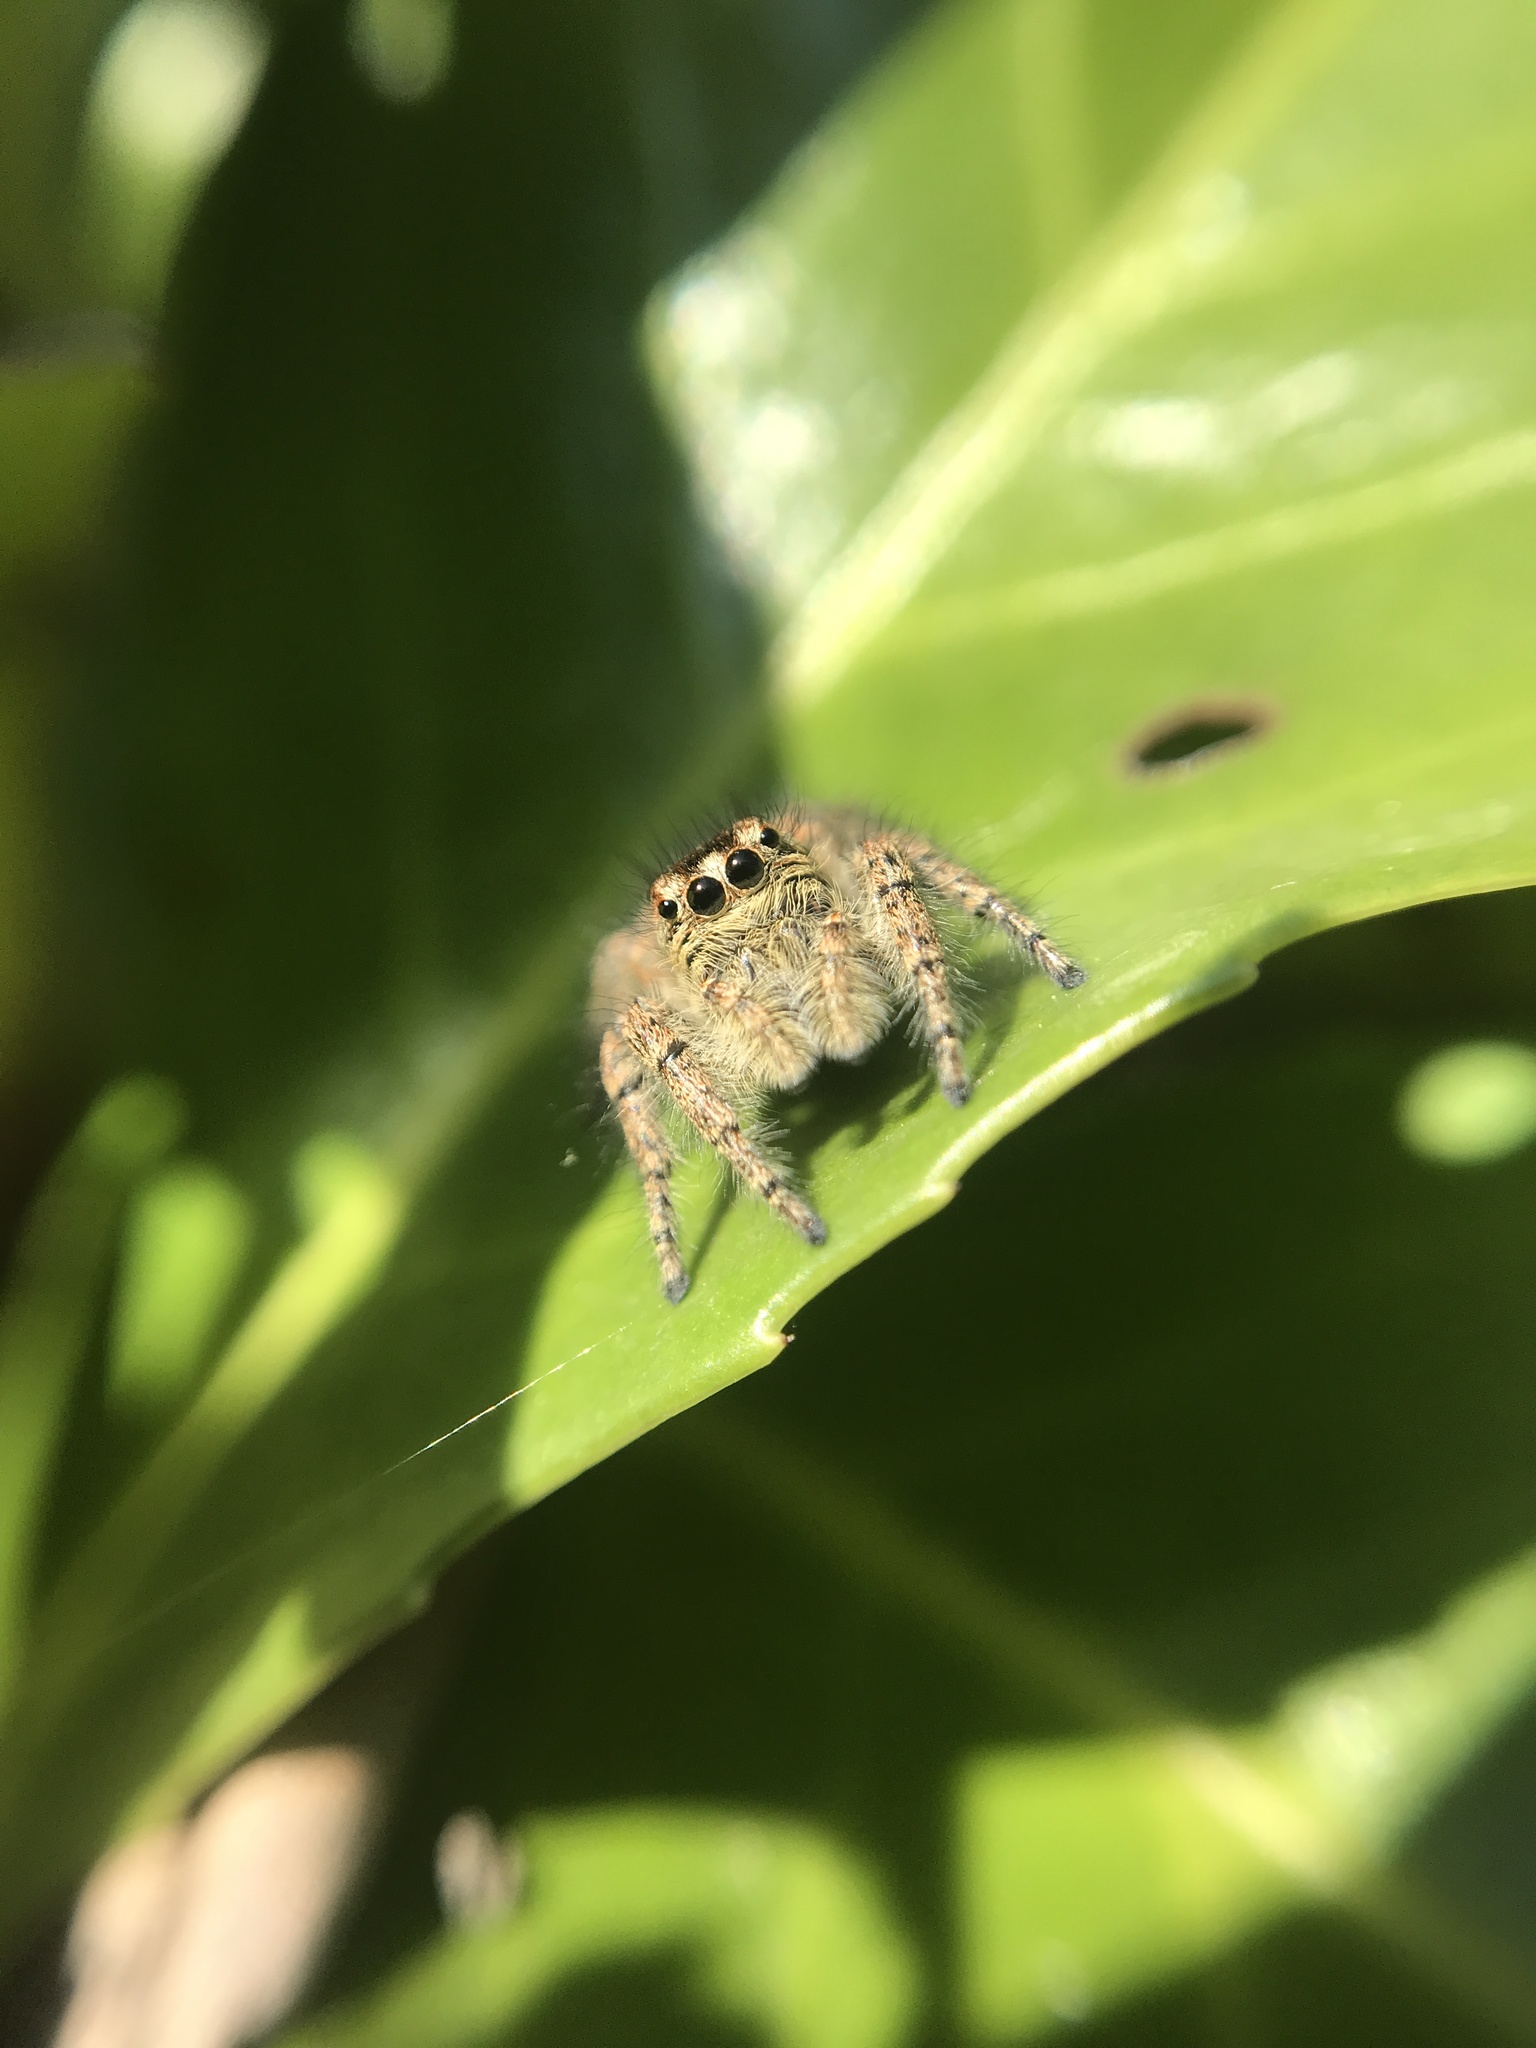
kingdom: Animalia
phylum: Arthropoda
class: Arachnida
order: Araneae
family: Salticidae
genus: Philaeus
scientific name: Philaeus chrysops
